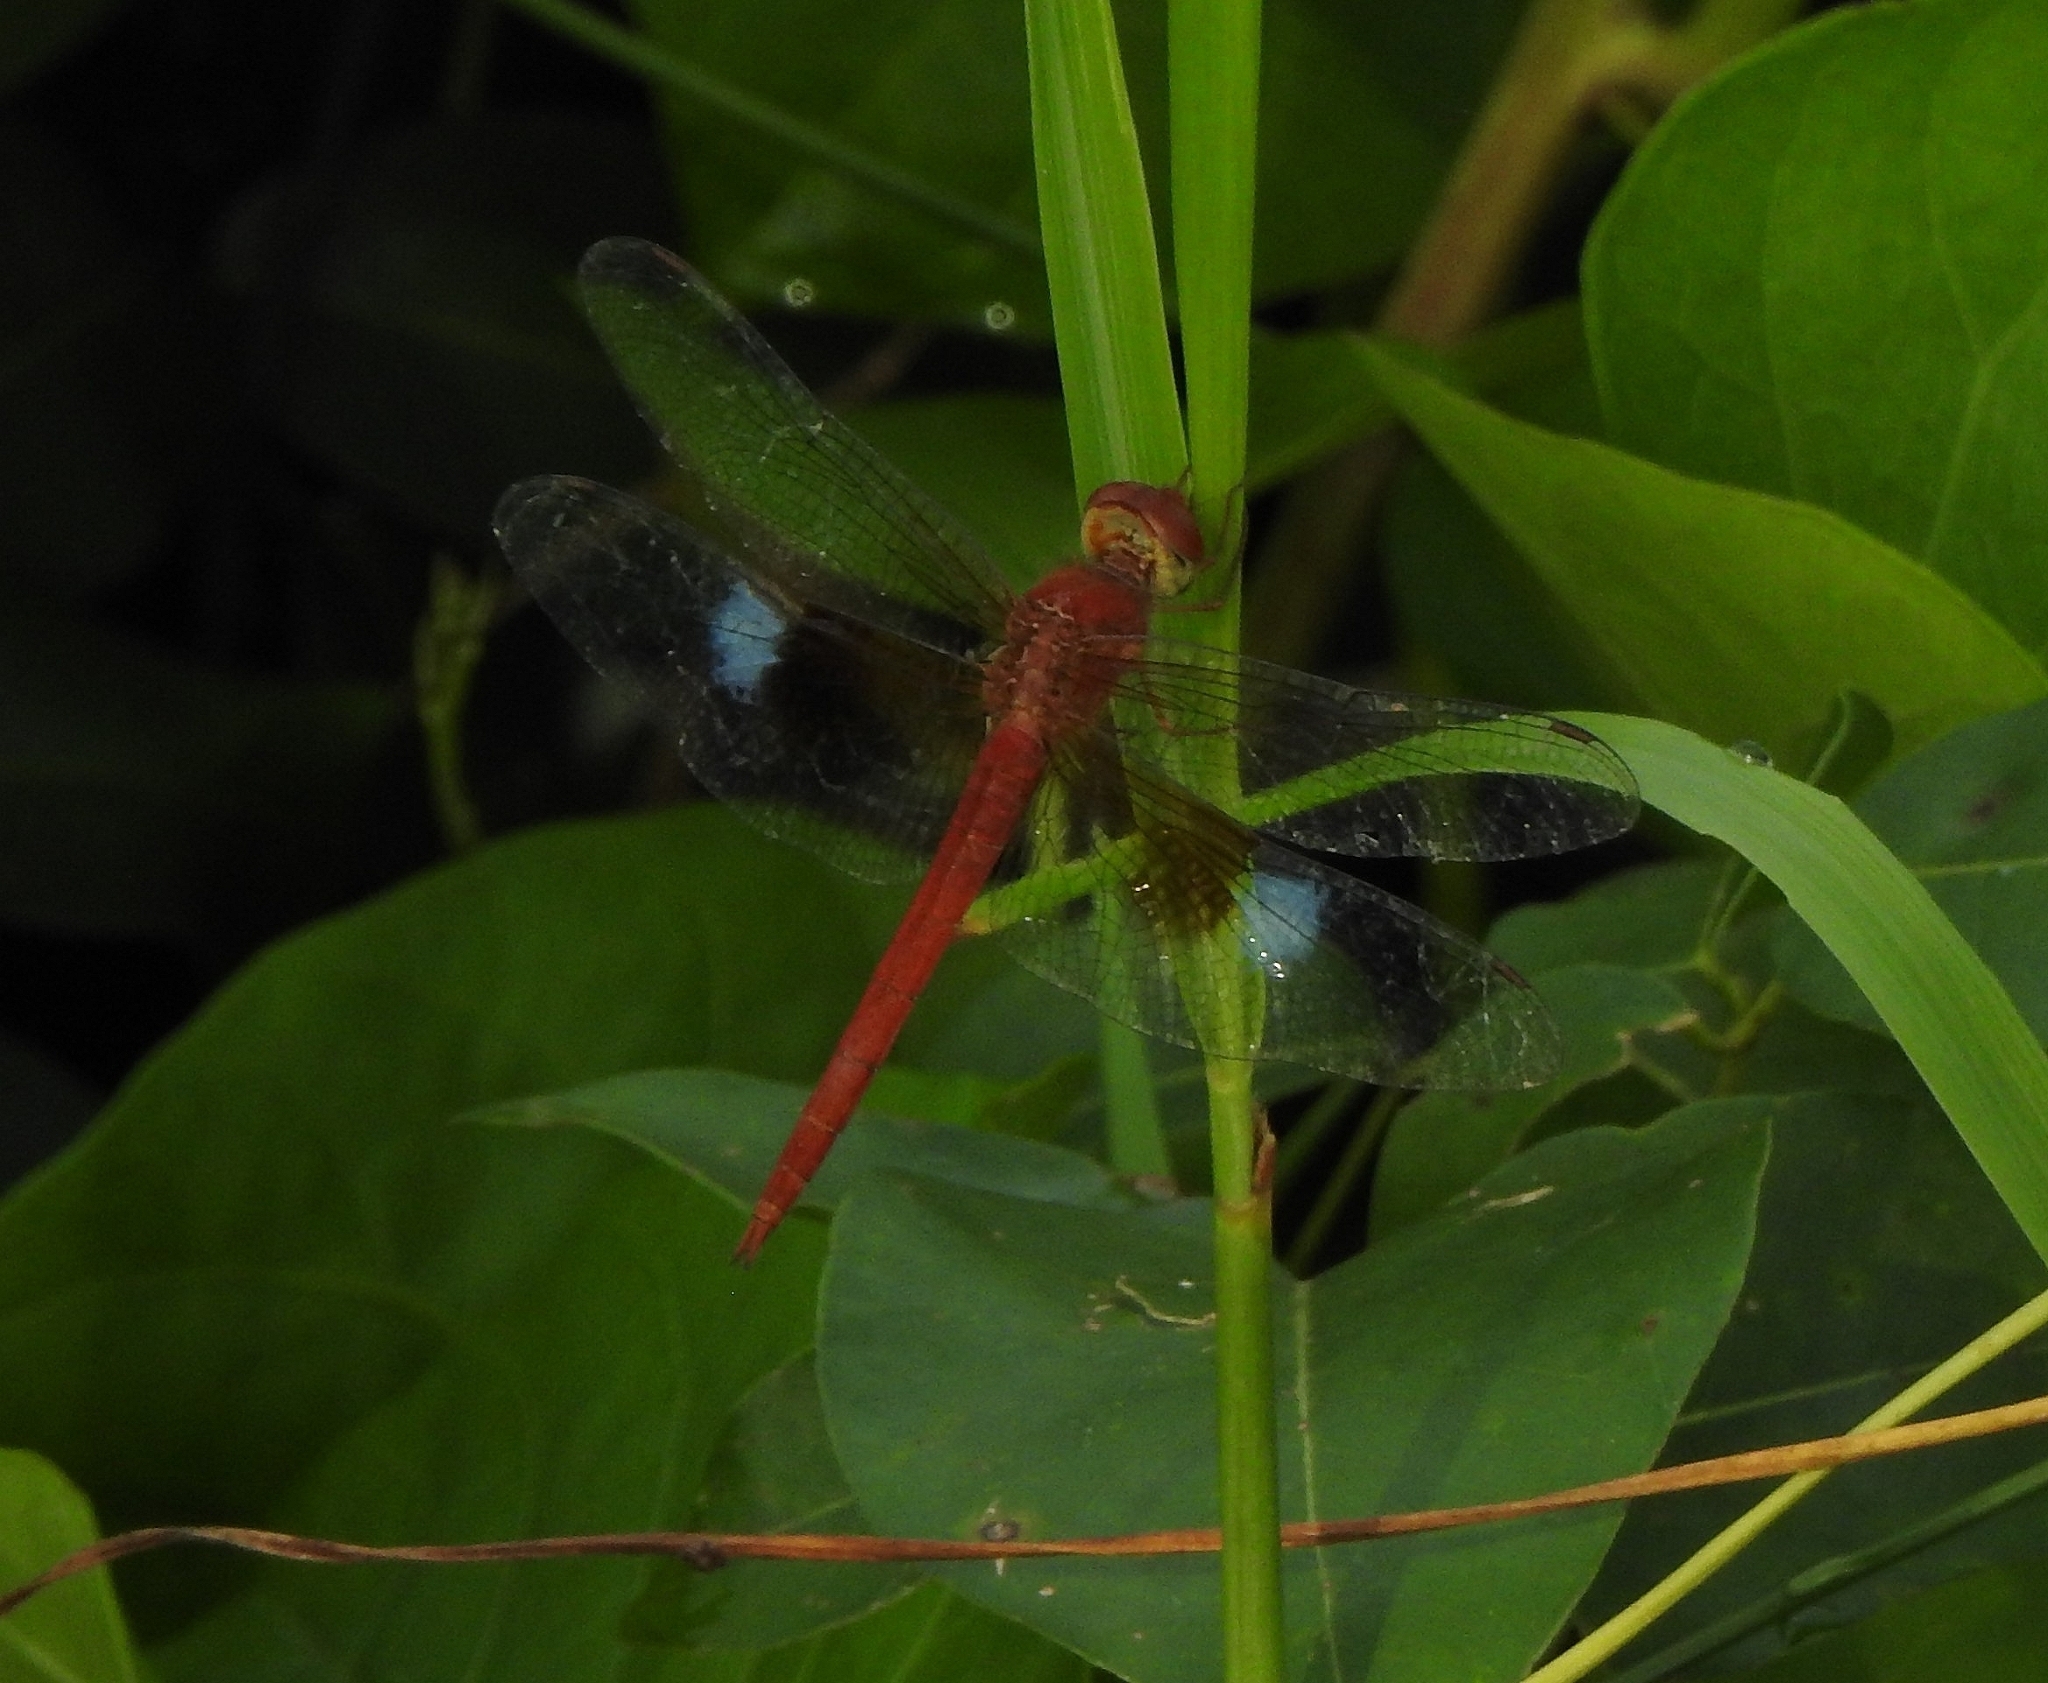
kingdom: Animalia
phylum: Arthropoda
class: Insecta
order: Odonata
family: Libellulidae
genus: Tholymis
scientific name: Tholymis tillarga
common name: Coral-tailed cloud wing
